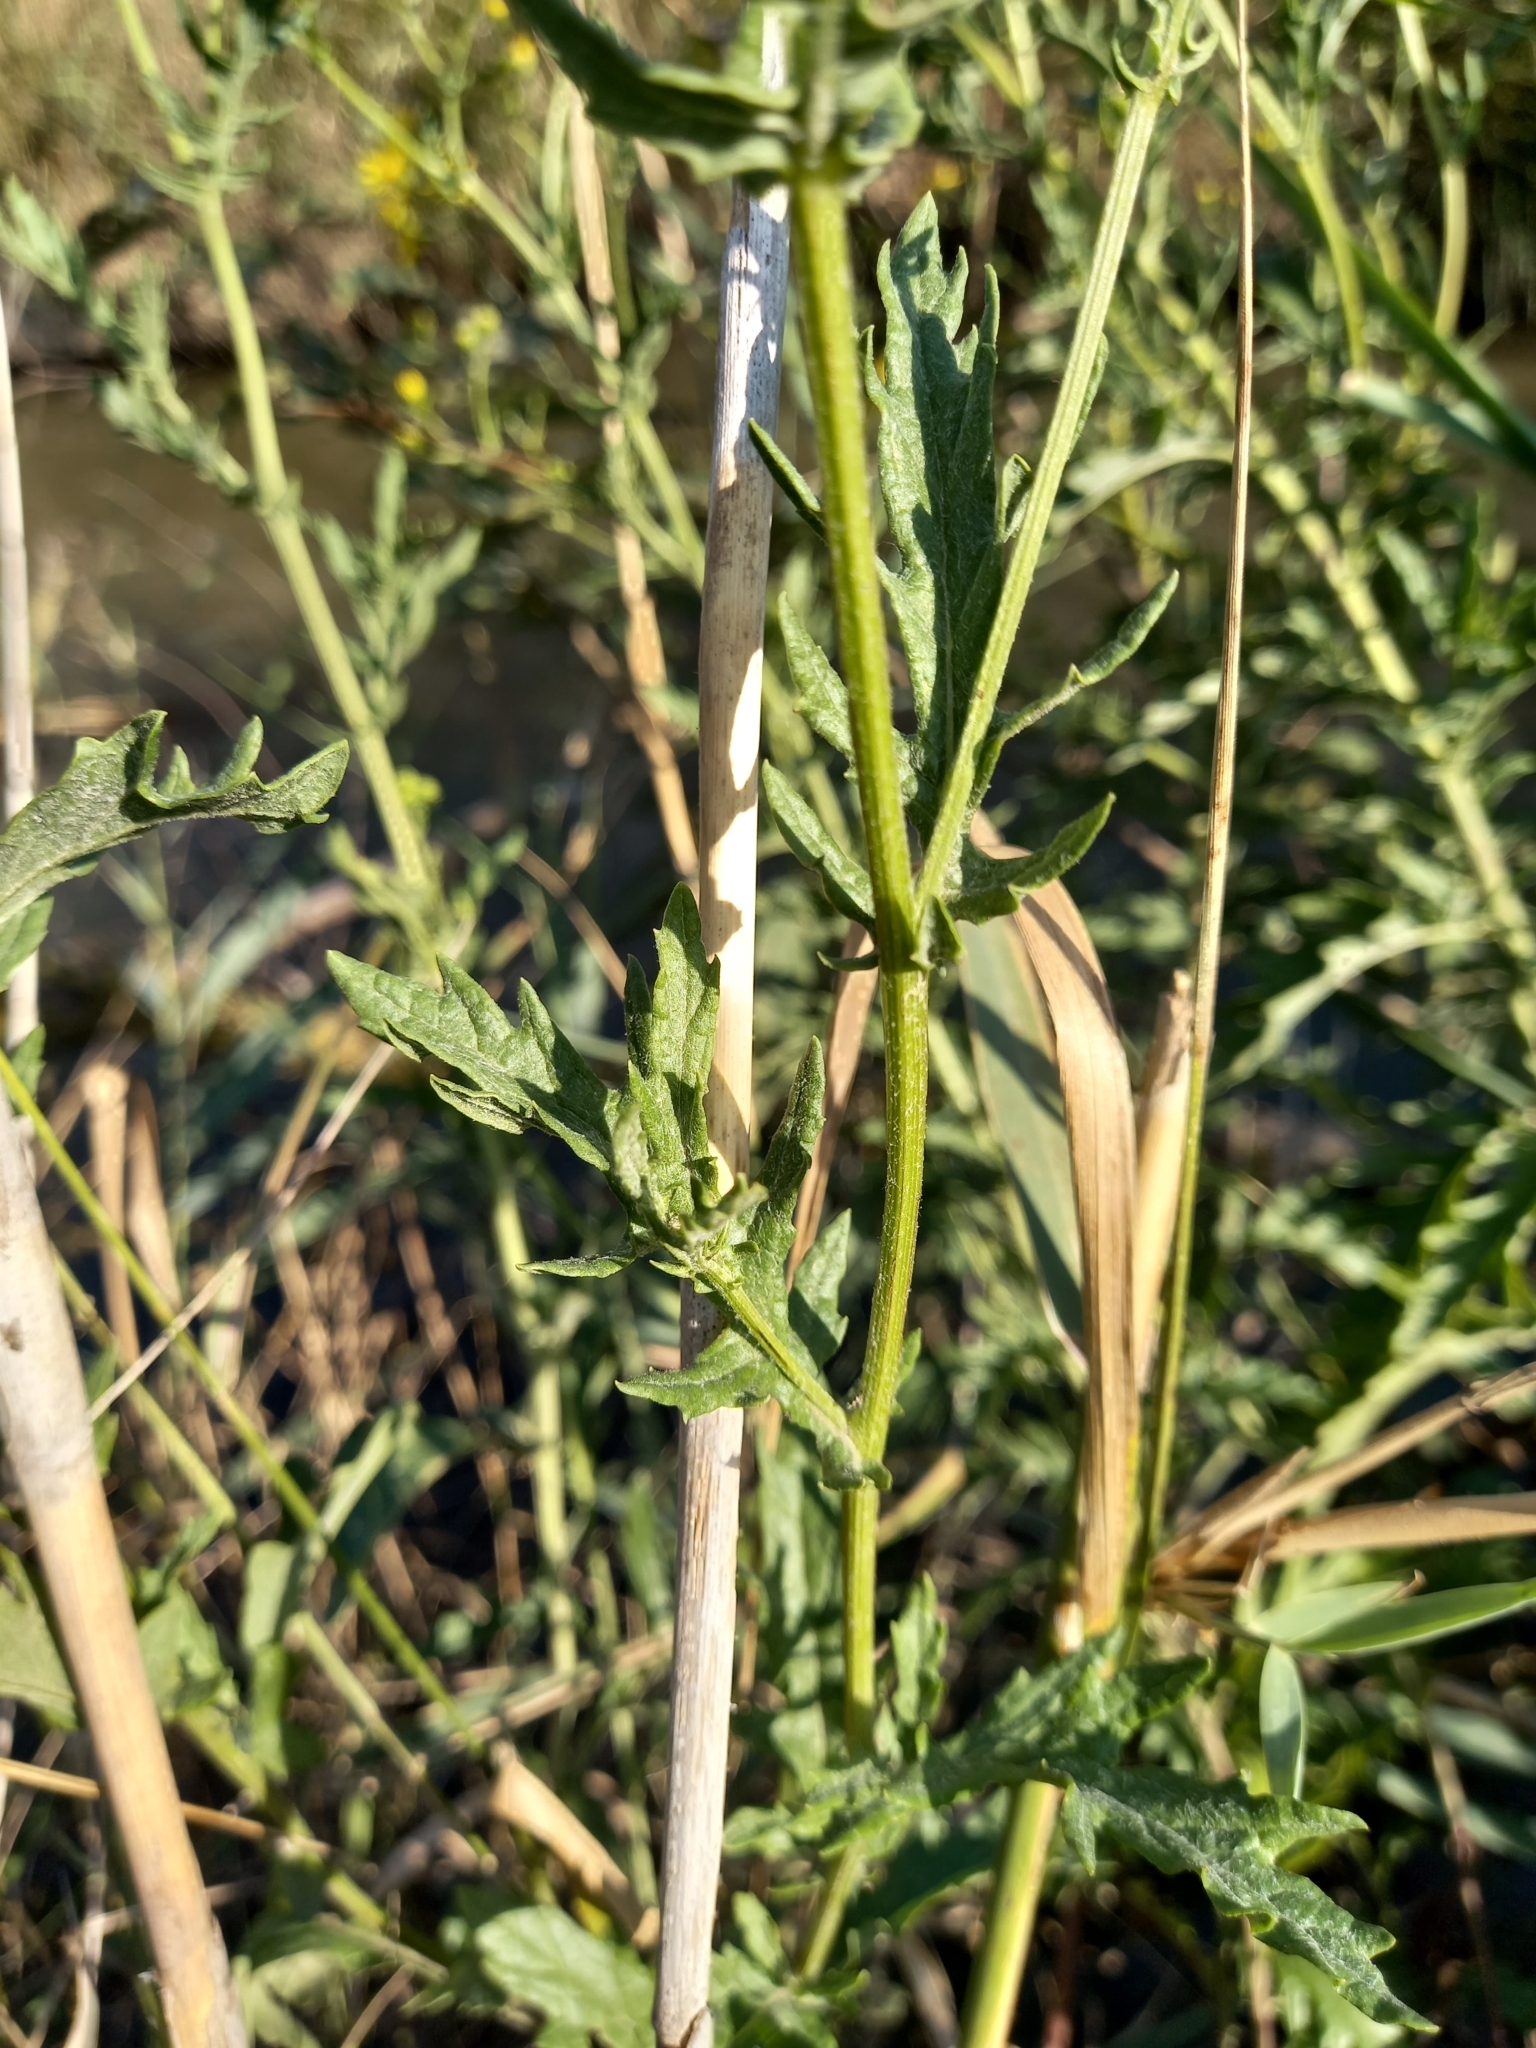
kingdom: Plantae
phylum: Tracheophyta
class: Magnoliopsida
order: Asterales
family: Asteraceae
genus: Jacobaea
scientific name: Jacobaea erucifolia
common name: Hoary ragwort
